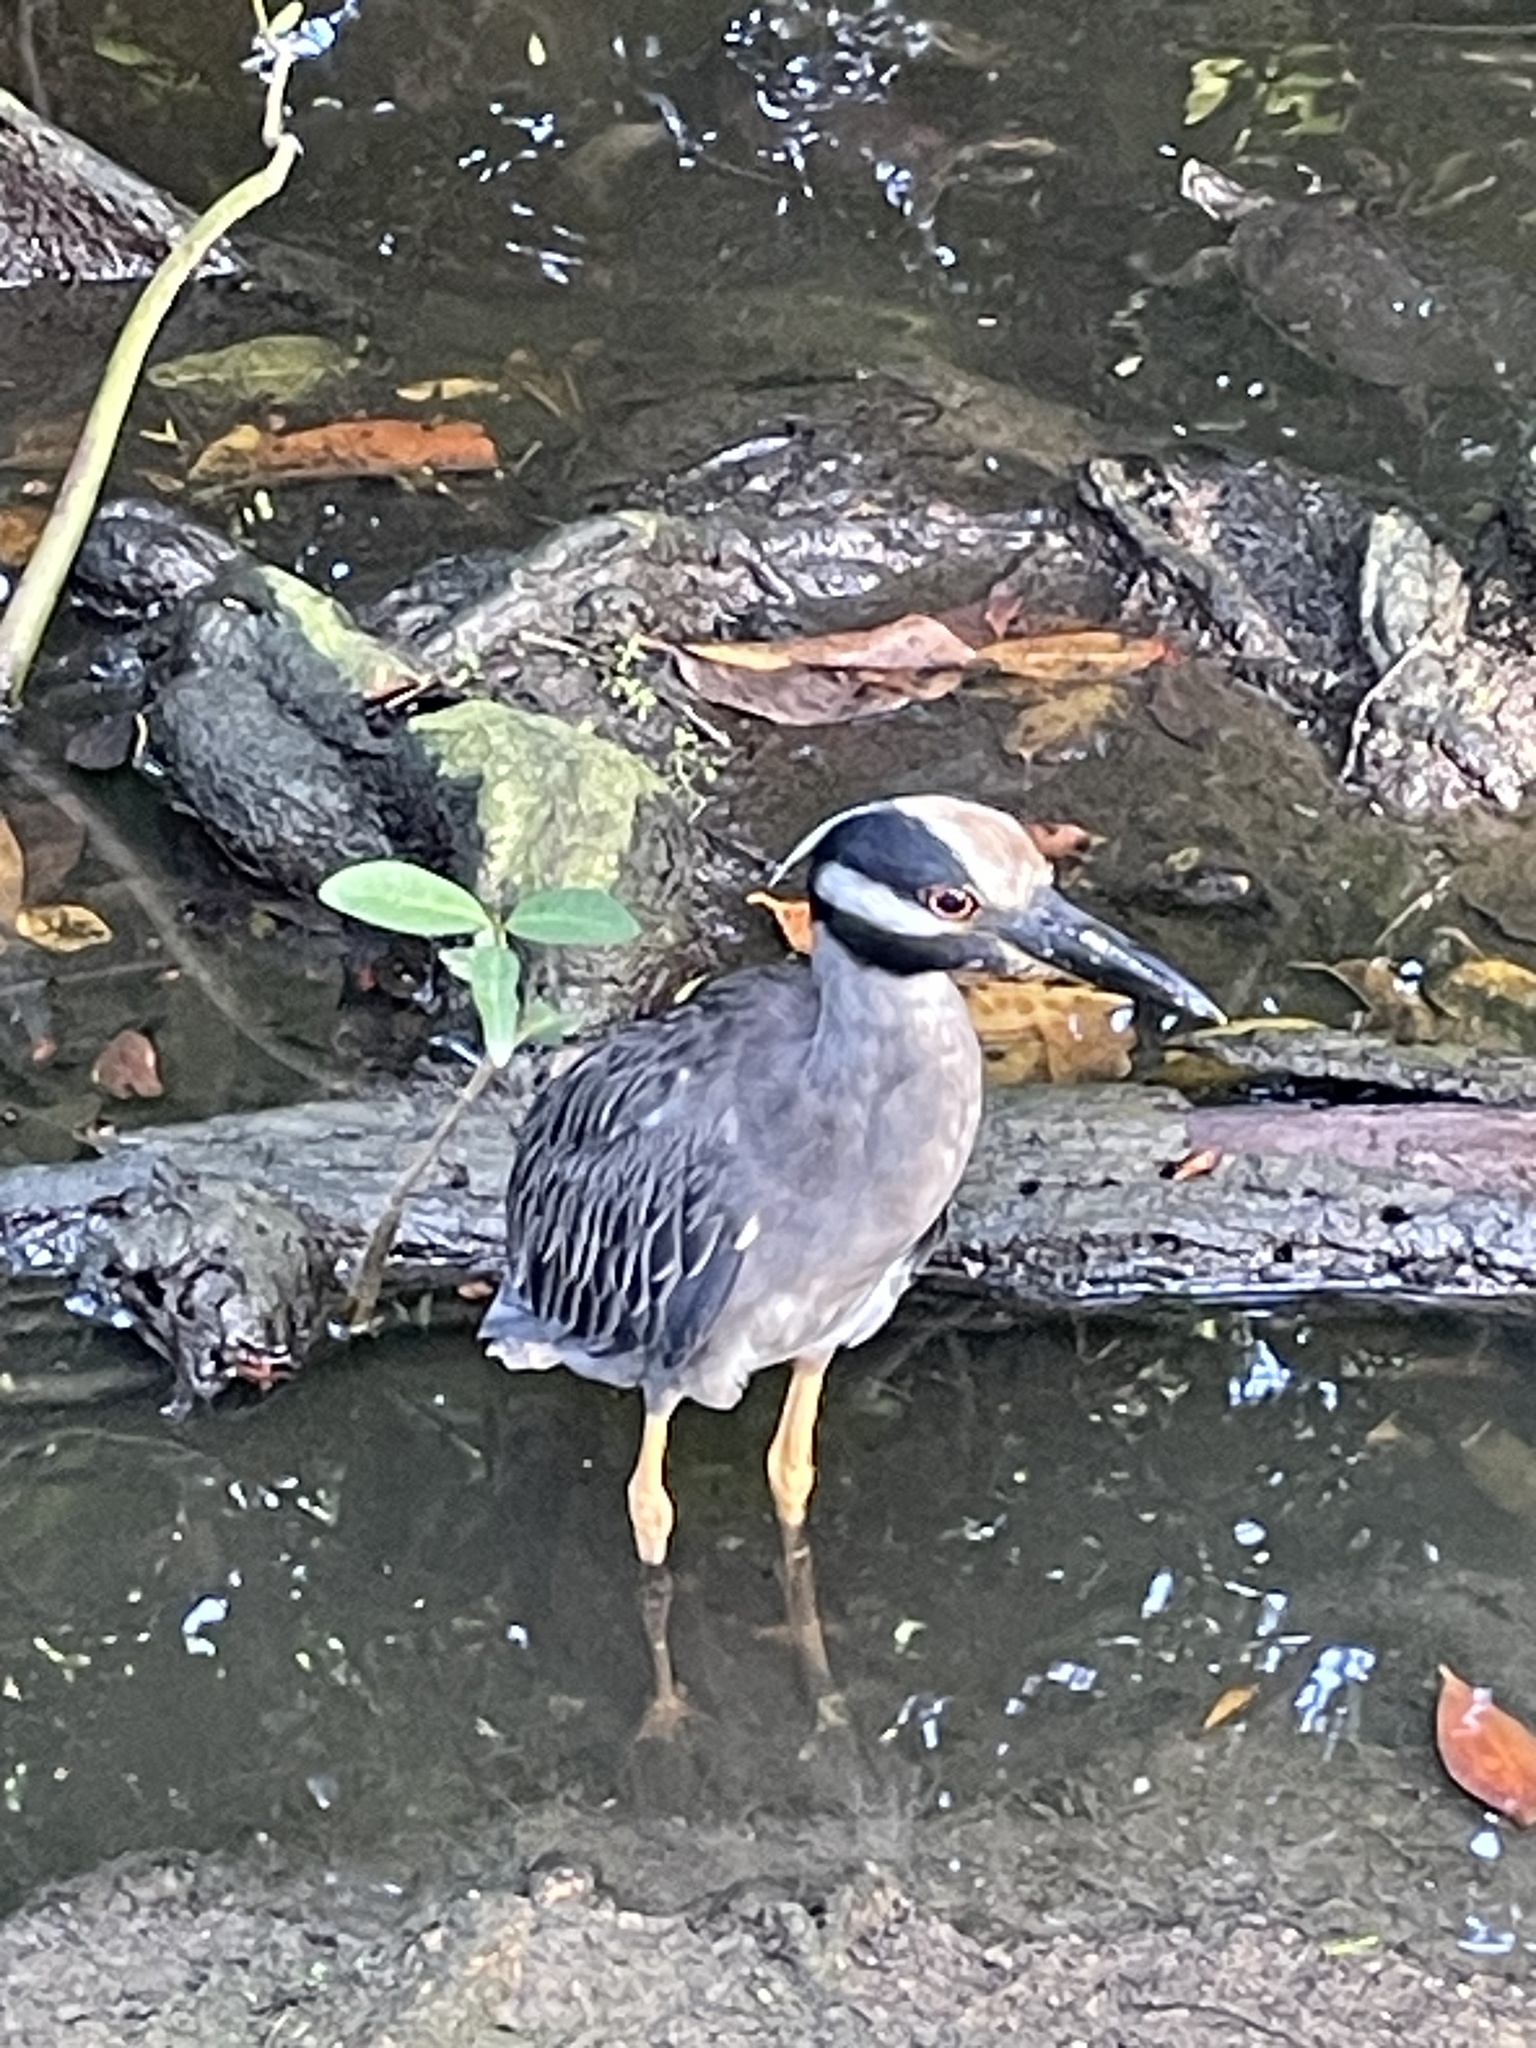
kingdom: Animalia
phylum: Chordata
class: Aves
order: Pelecaniformes
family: Ardeidae
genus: Nyctanassa
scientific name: Nyctanassa violacea
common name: Yellow-crowned night heron
